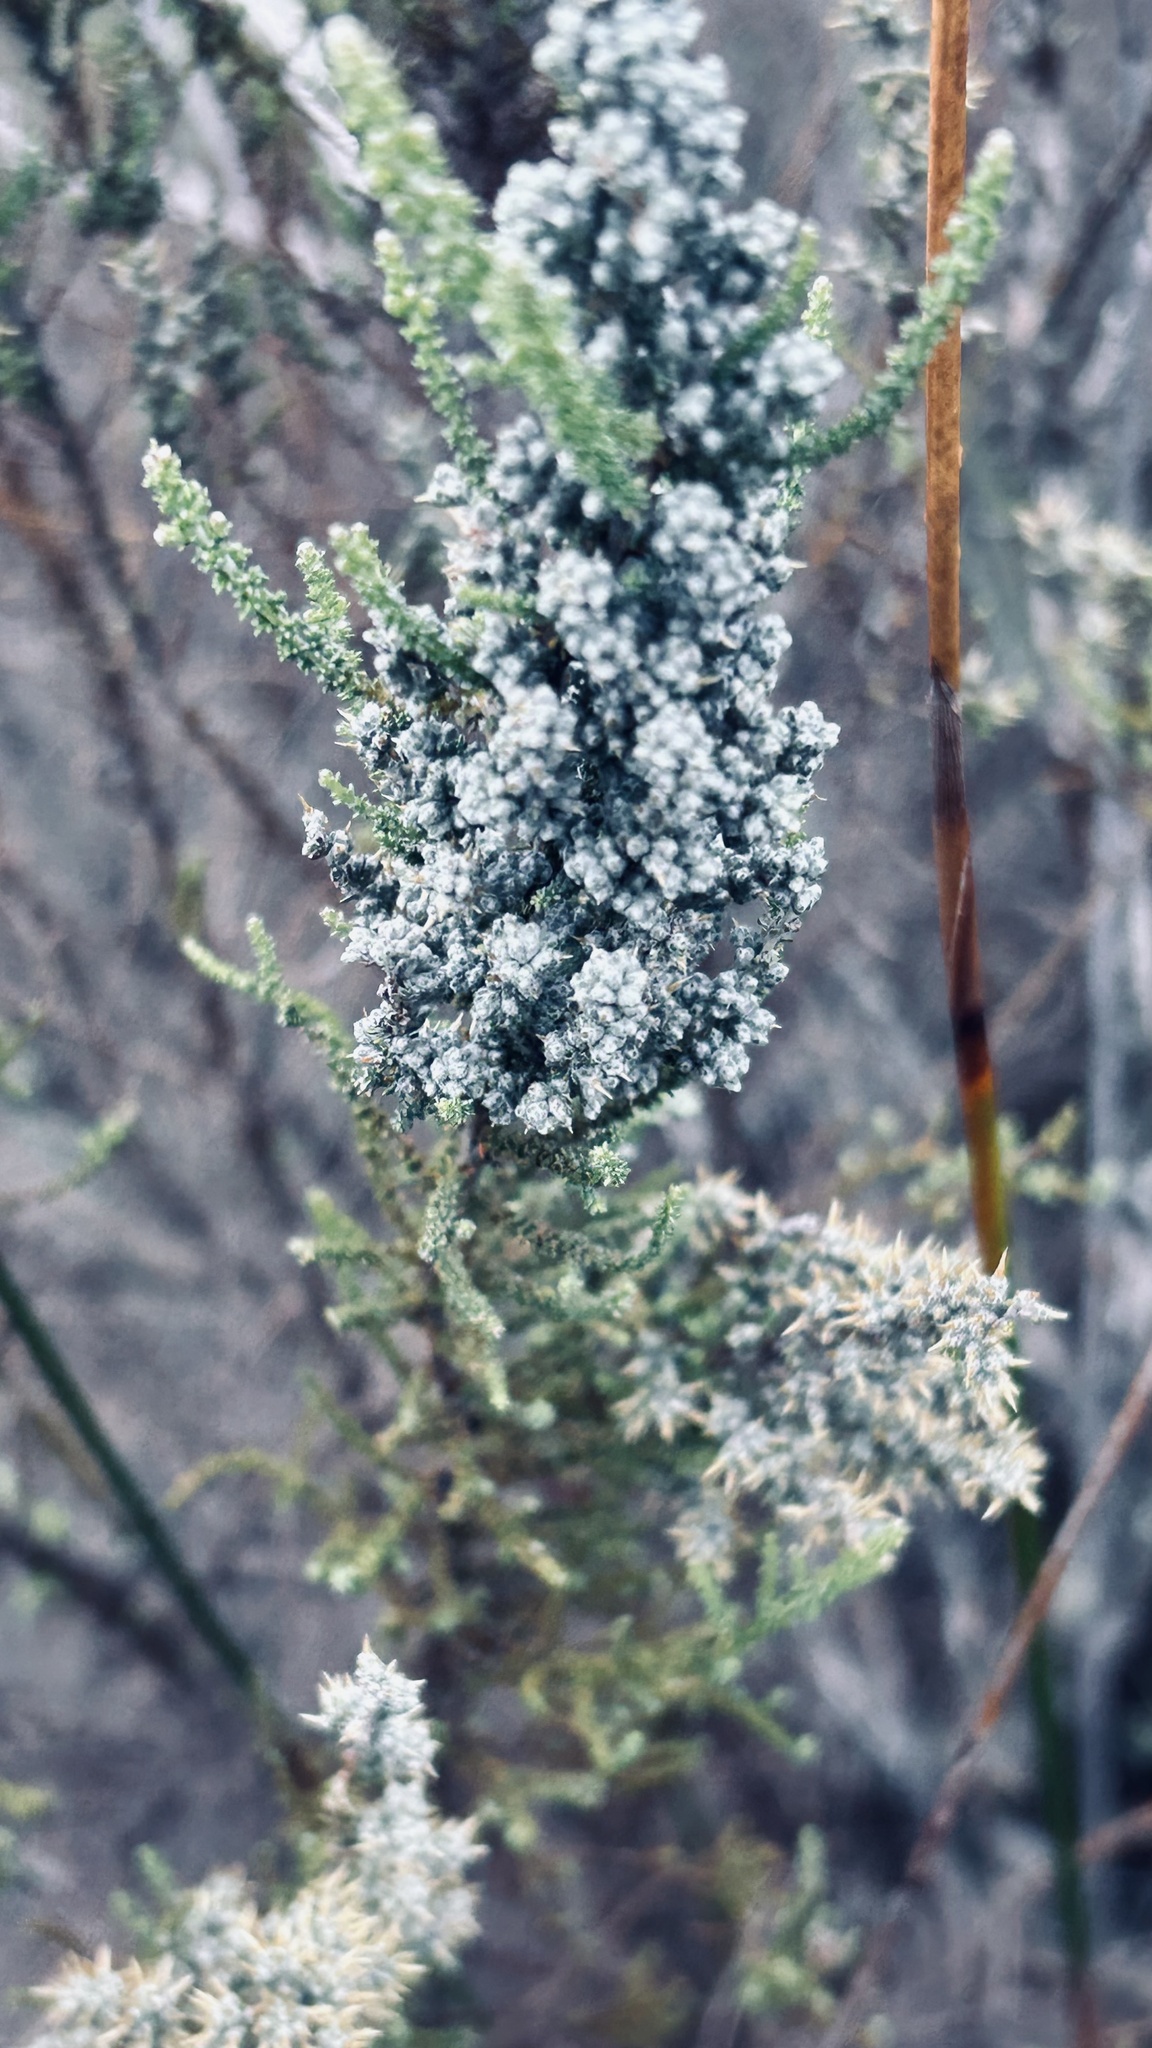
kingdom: Plantae
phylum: Tracheophyta
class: Magnoliopsida
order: Asterales
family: Asteraceae
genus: Seriphium
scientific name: Seriphium plumosum
